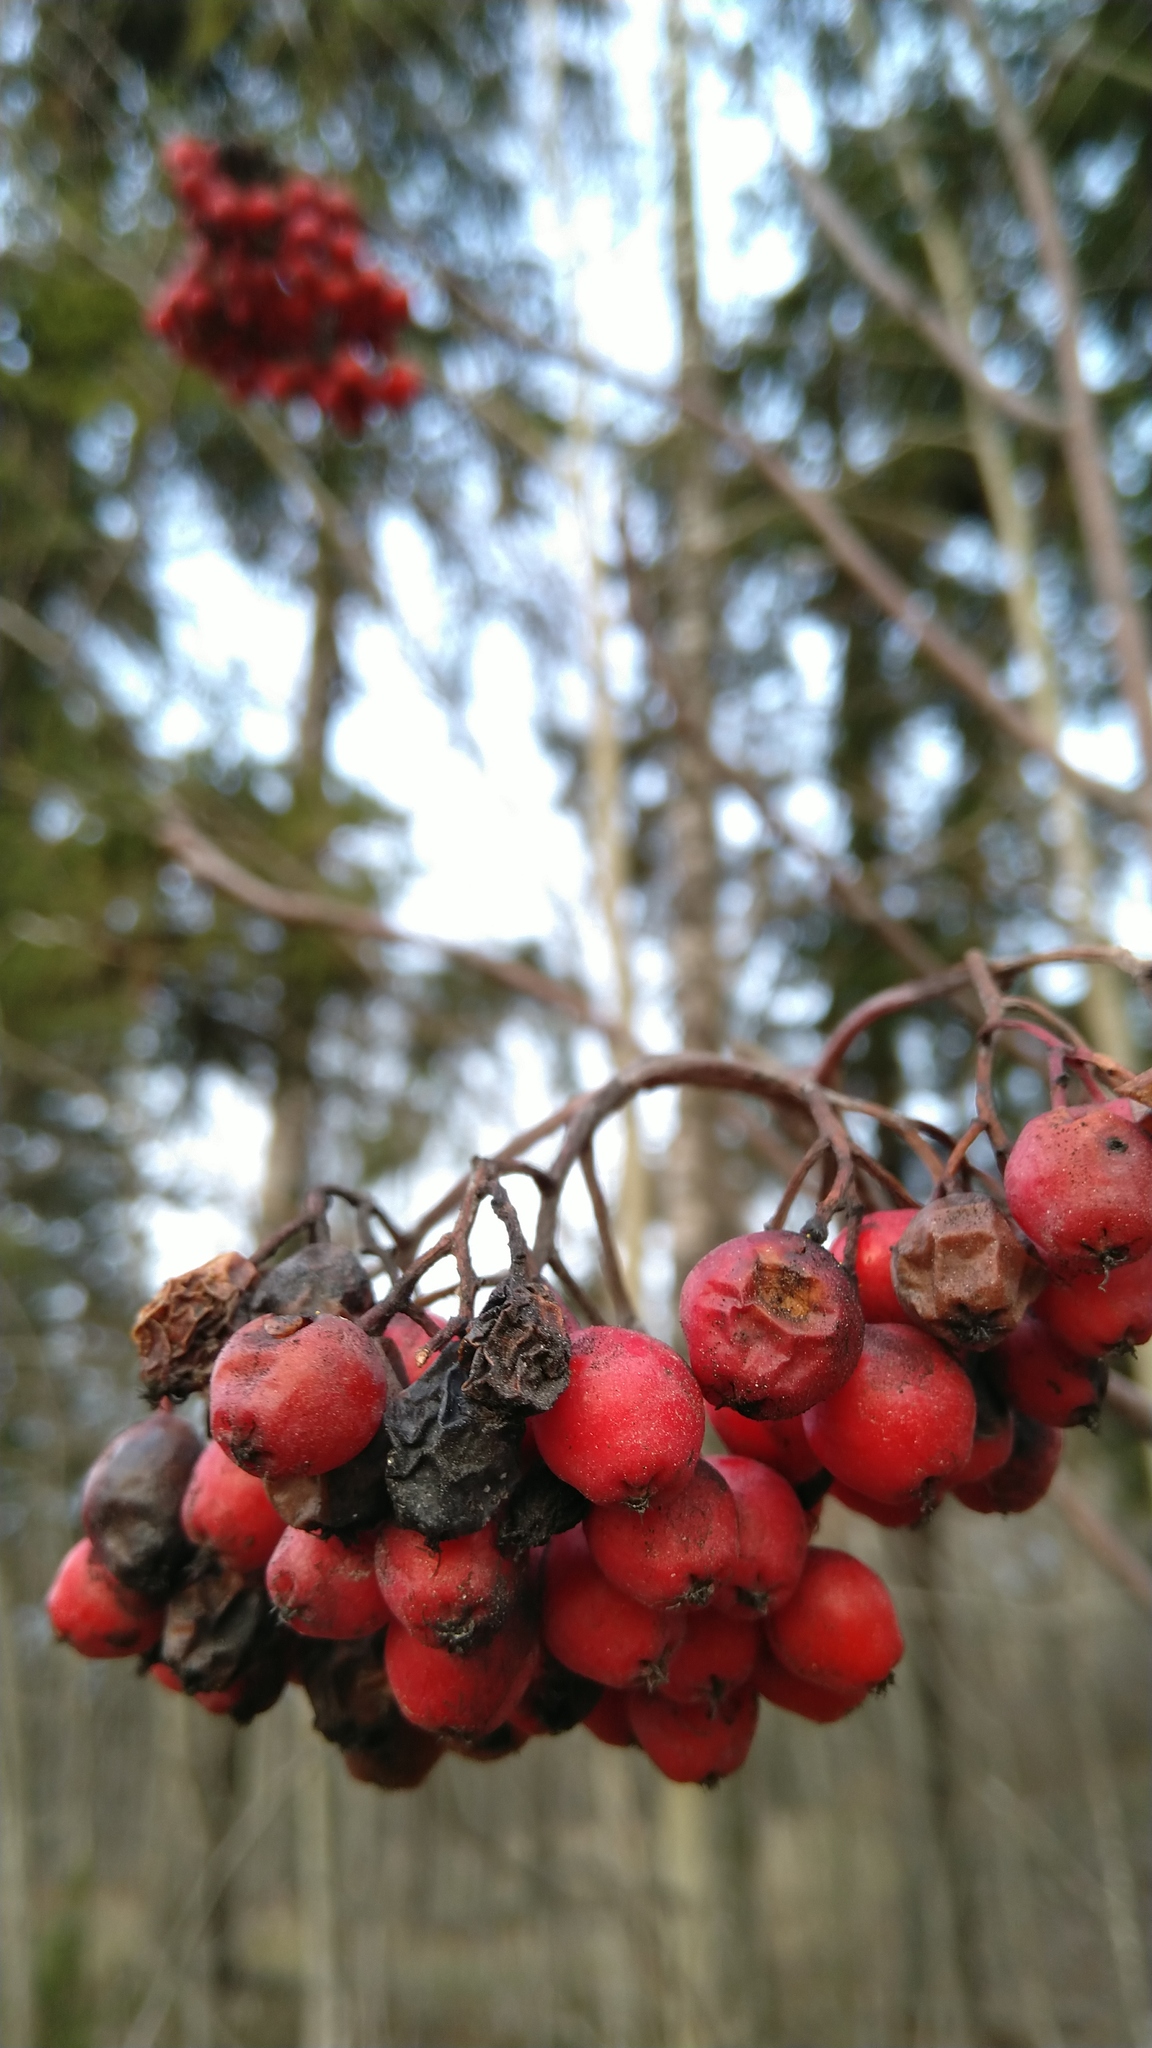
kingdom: Plantae
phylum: Tracheophyta
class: Magnoliopsida
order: Rosales
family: Rosaceae
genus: Sorbus
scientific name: Sorbus aucuparia
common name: Rowan
